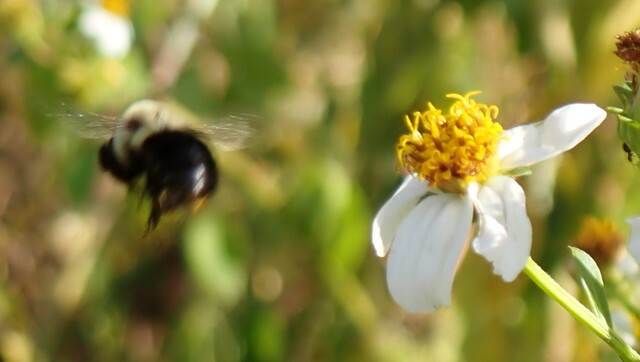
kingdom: Animalia
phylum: Arthropoda
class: Insecta
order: Hymenoptera
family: Apidae
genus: Bombus
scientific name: Bombus impatiens
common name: Common eastern bumble bee
